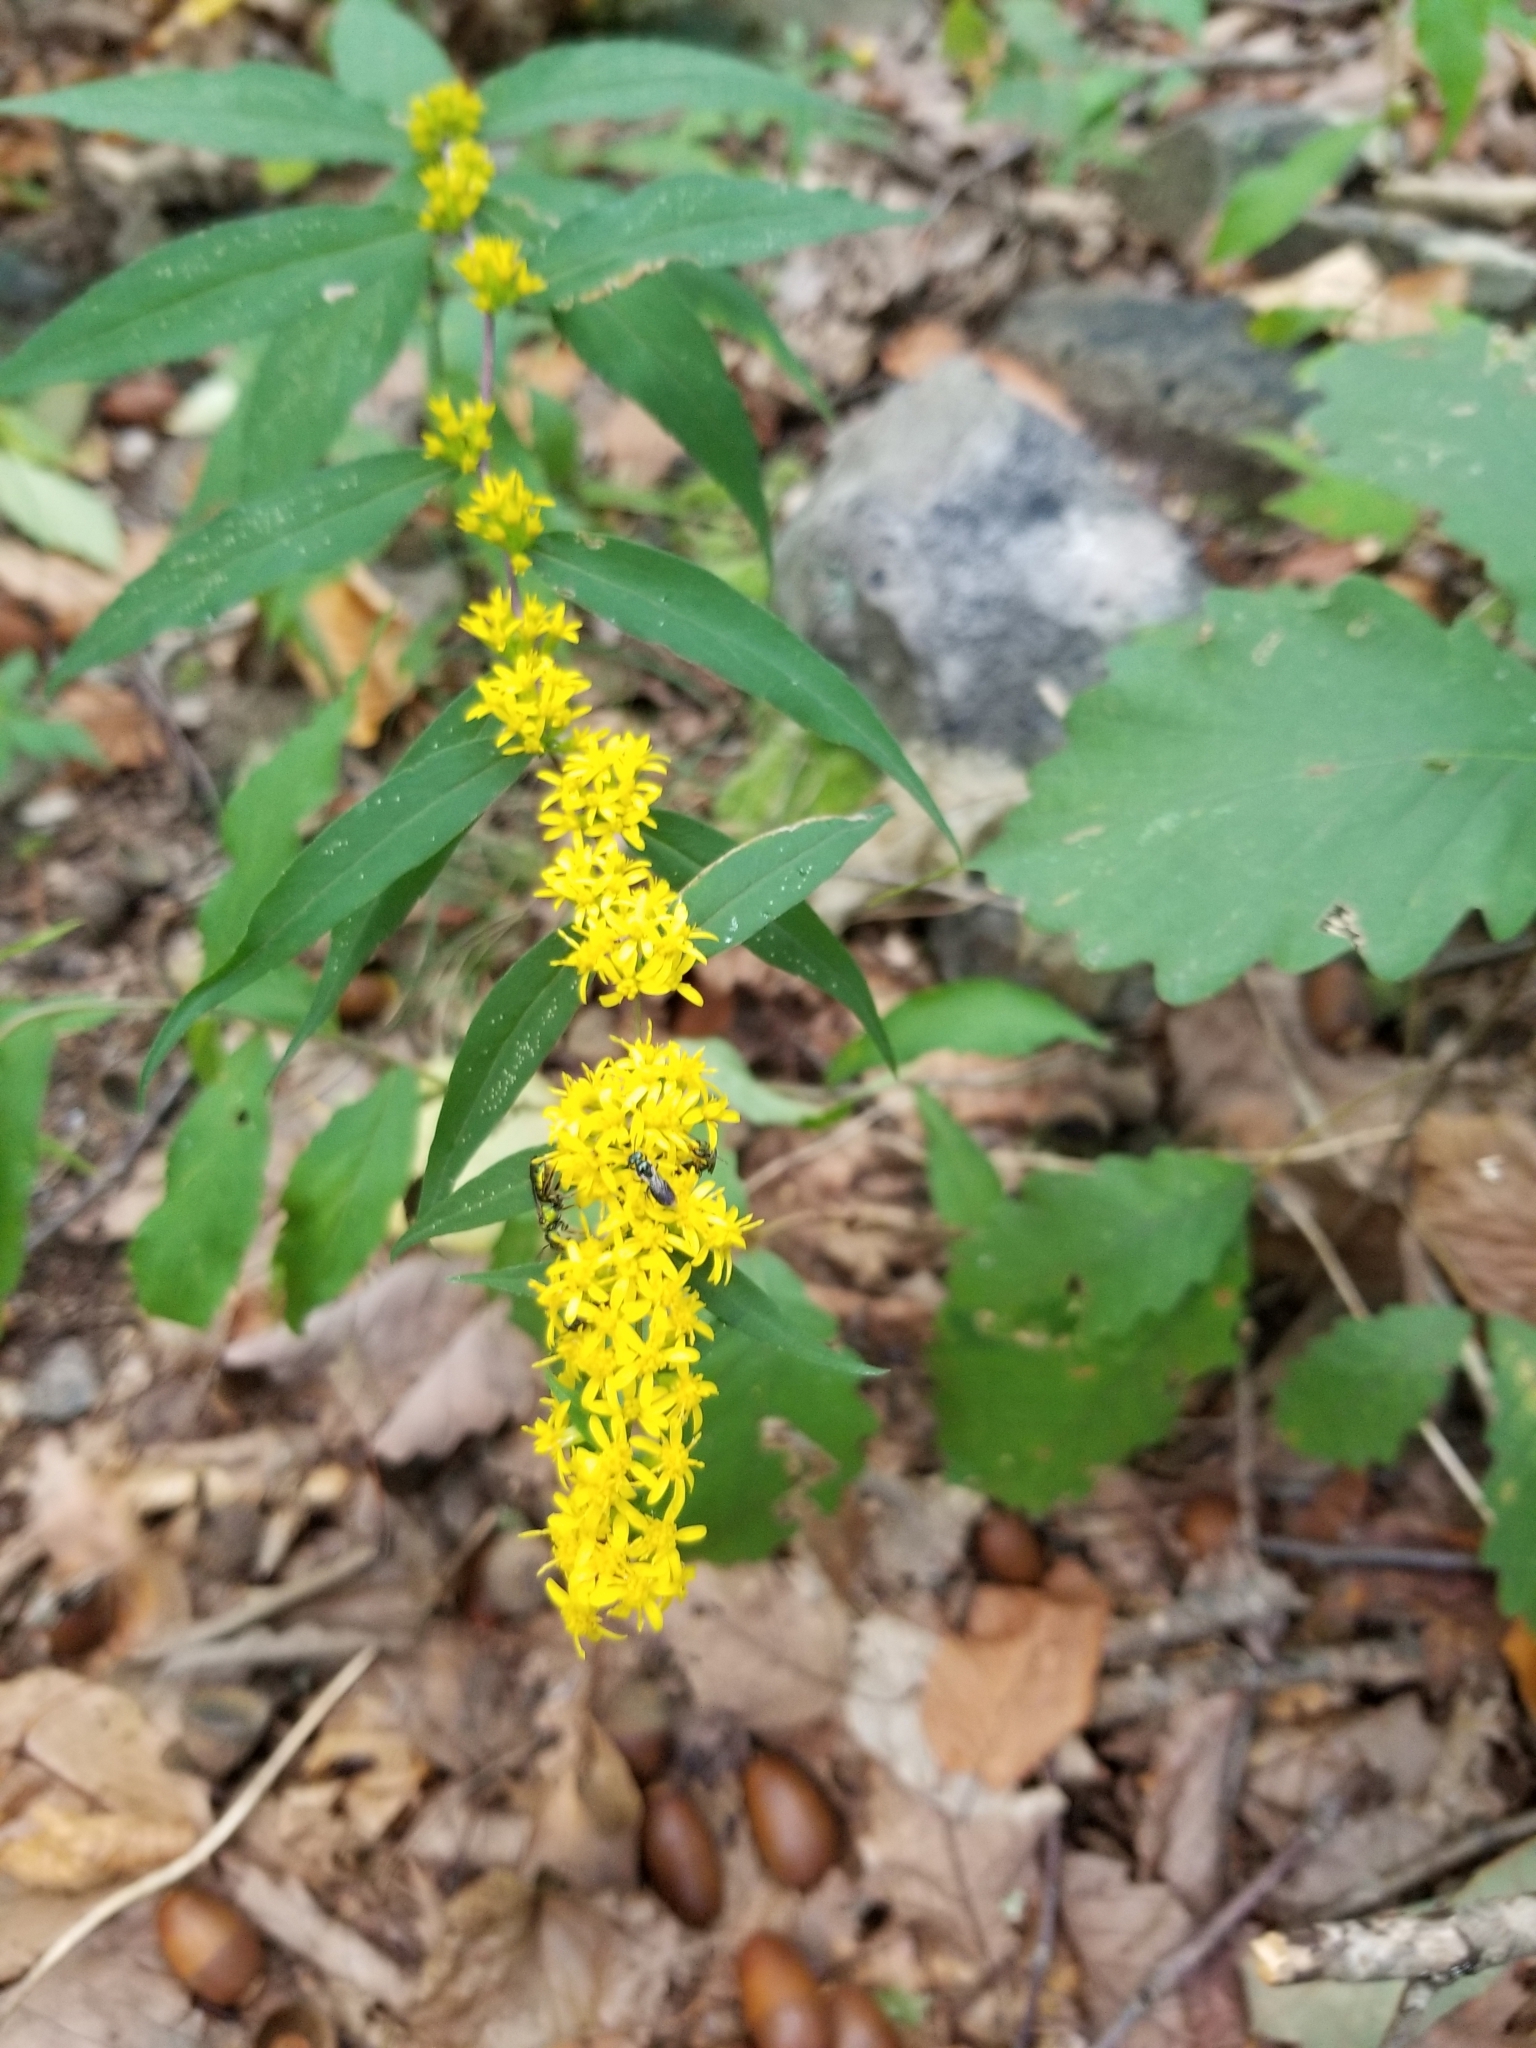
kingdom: Plantae
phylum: Tracheophyta
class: Magnoliopsida
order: Asterales
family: Asteraceae
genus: Solidago
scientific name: Solidago caesia
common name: Woodland goldenrod
